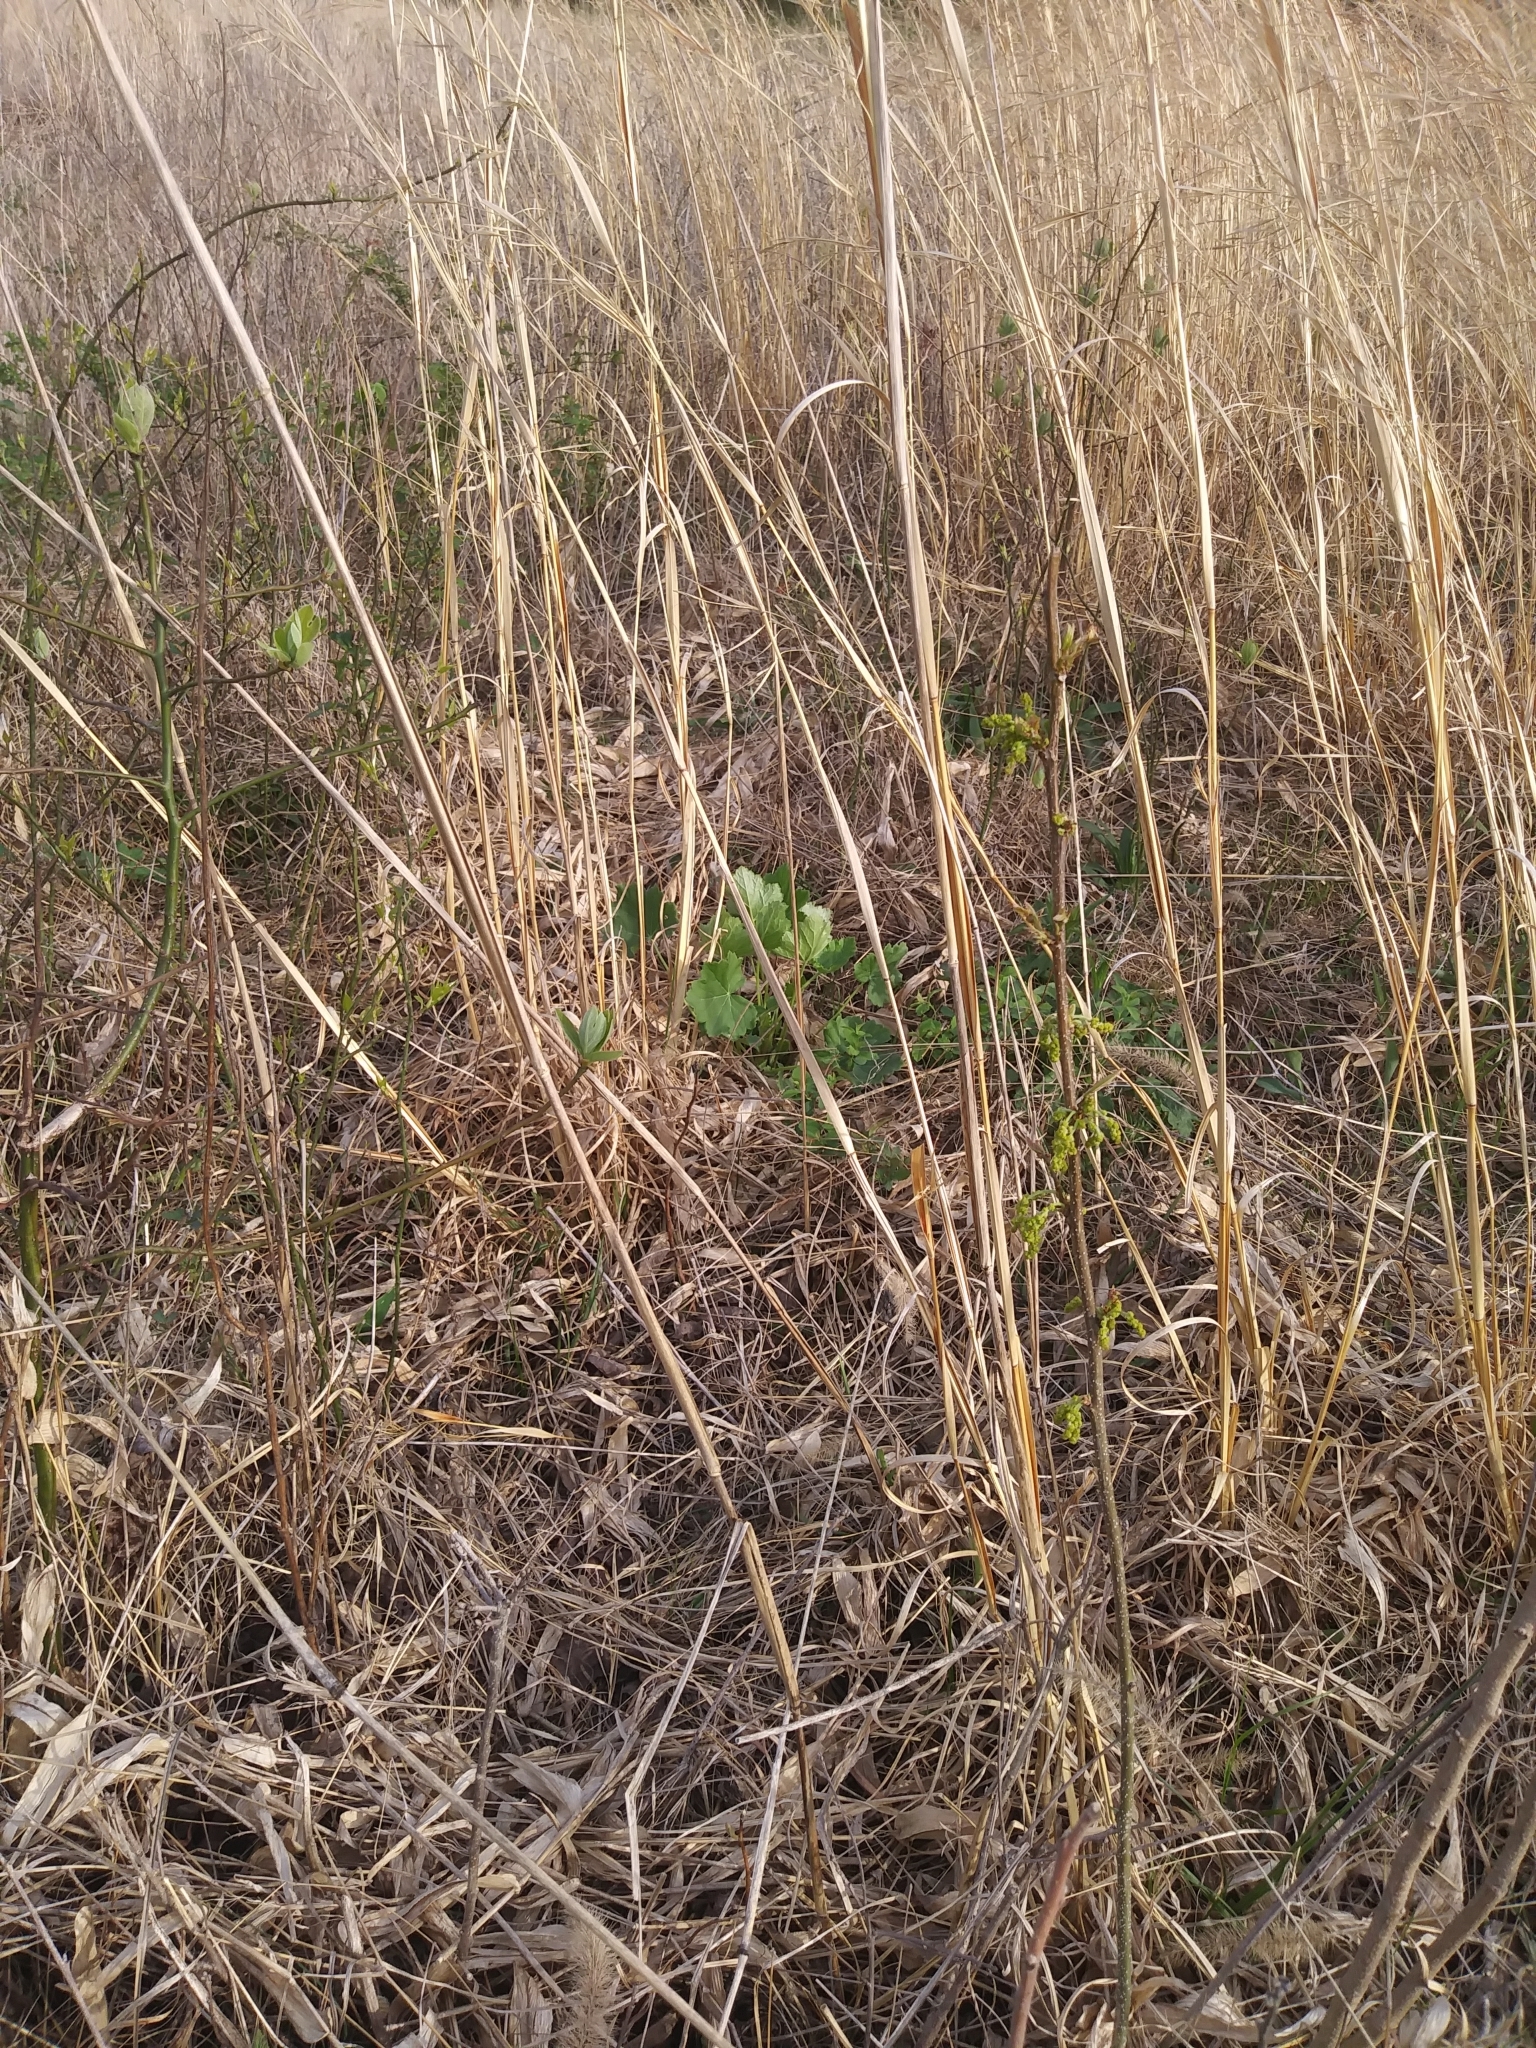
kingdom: Plantae
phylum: Tracheophyta
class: Magnoliopsida
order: Saxifragales
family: Saxifragaceae
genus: Heuchera
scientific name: Heuchera americana
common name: Alumroot
